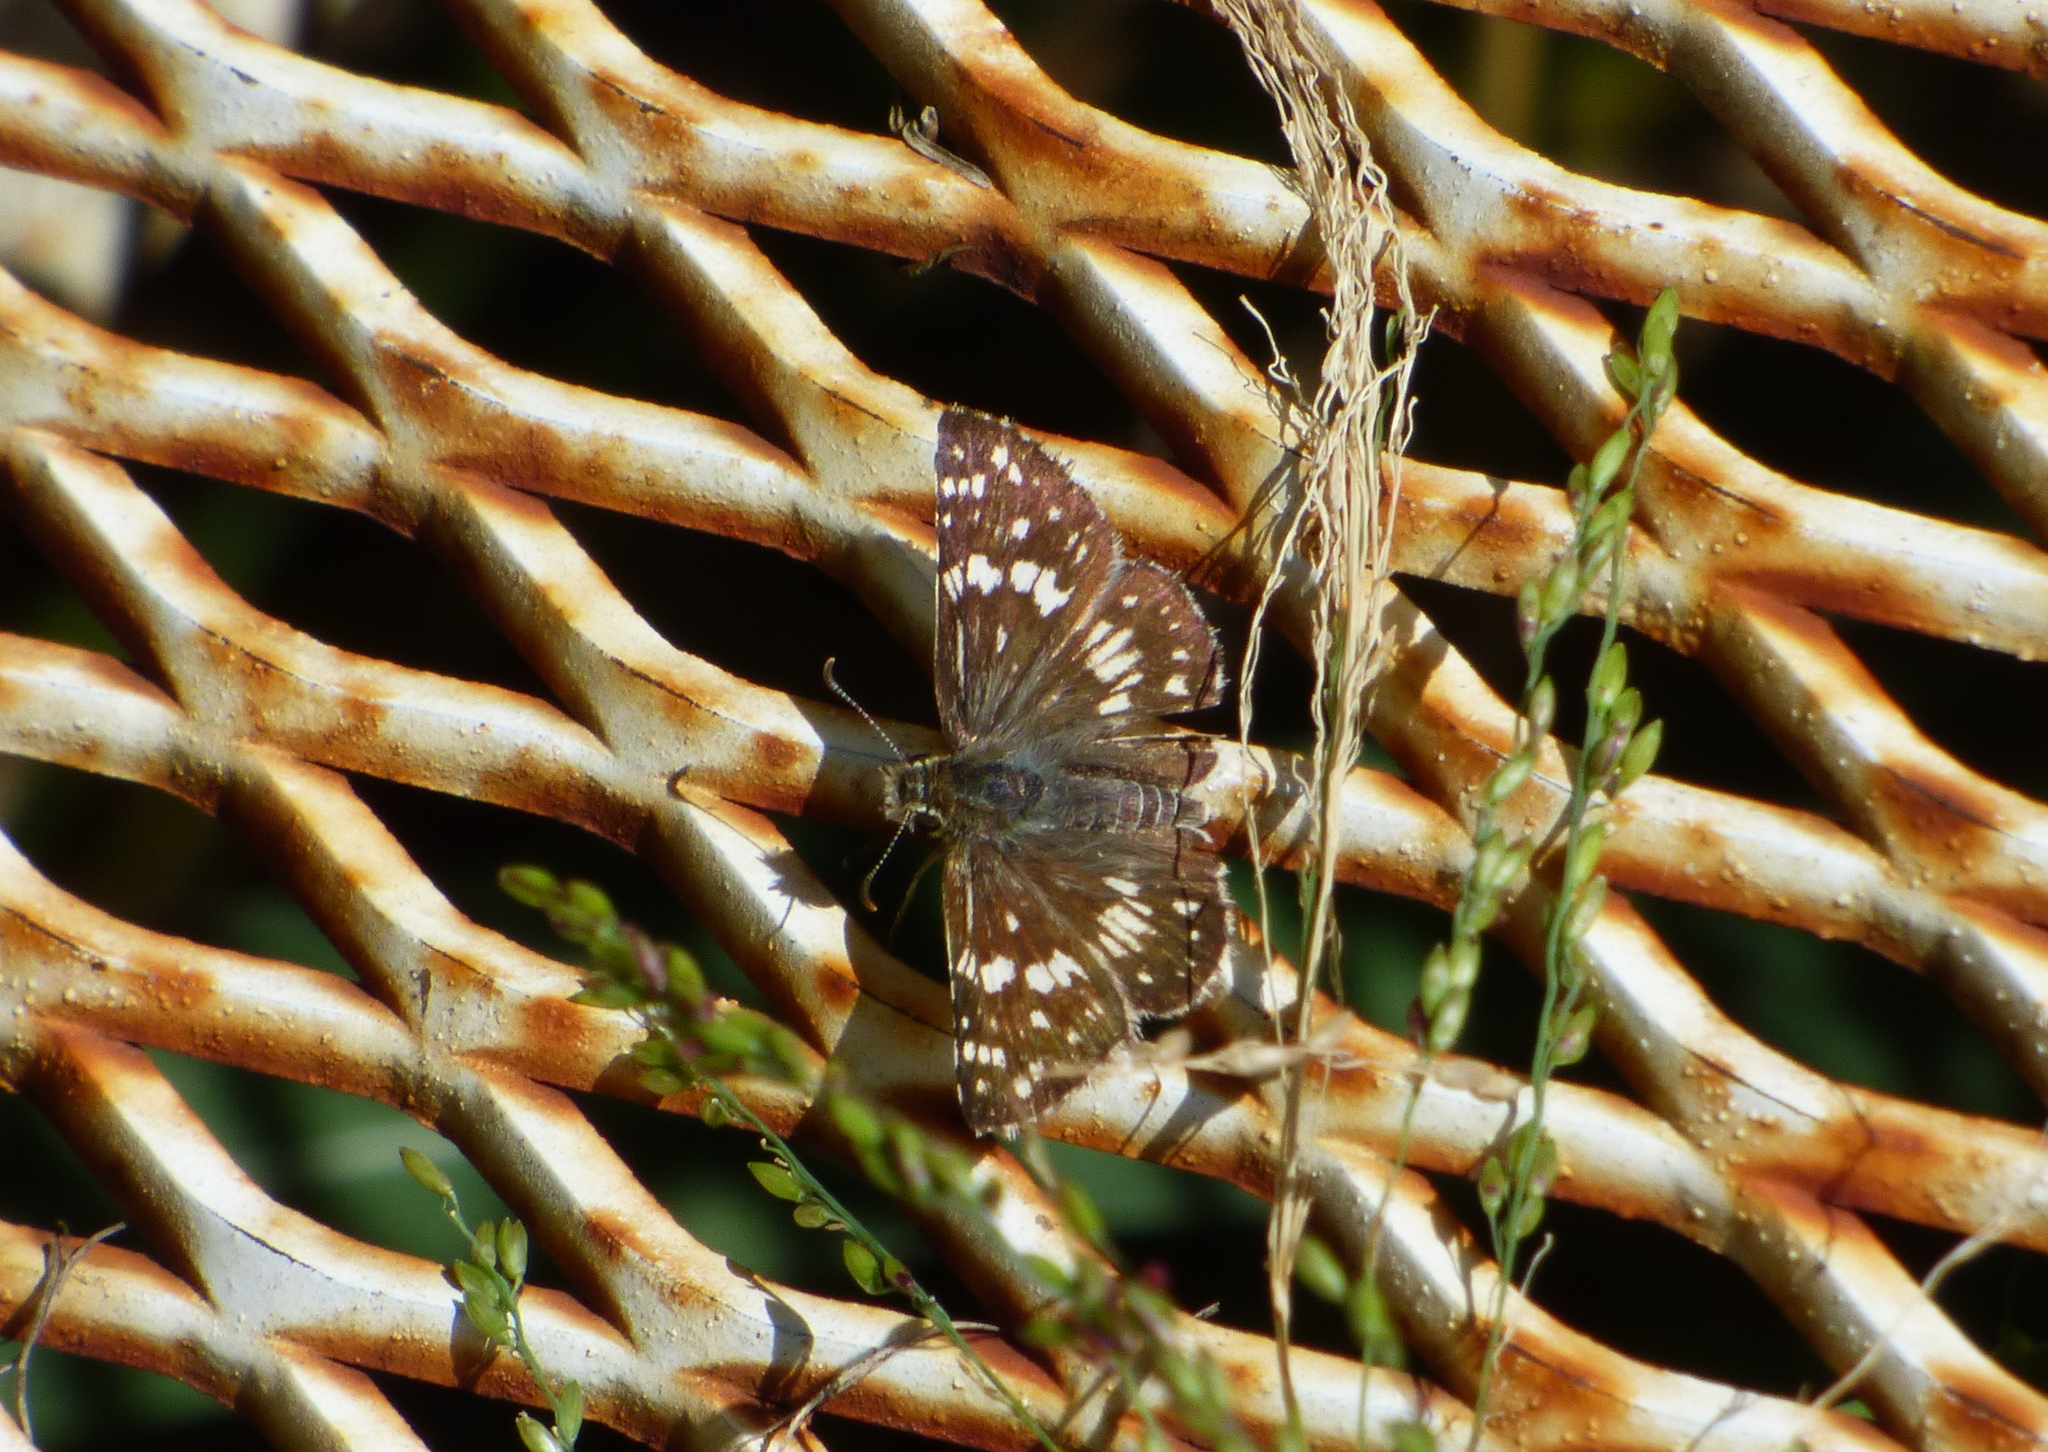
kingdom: Animalia
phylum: Arthropoda
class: Insecta
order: Lepidoptera
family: Hesperiidae
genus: Burnsius
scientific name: Burnsius orcynoides
